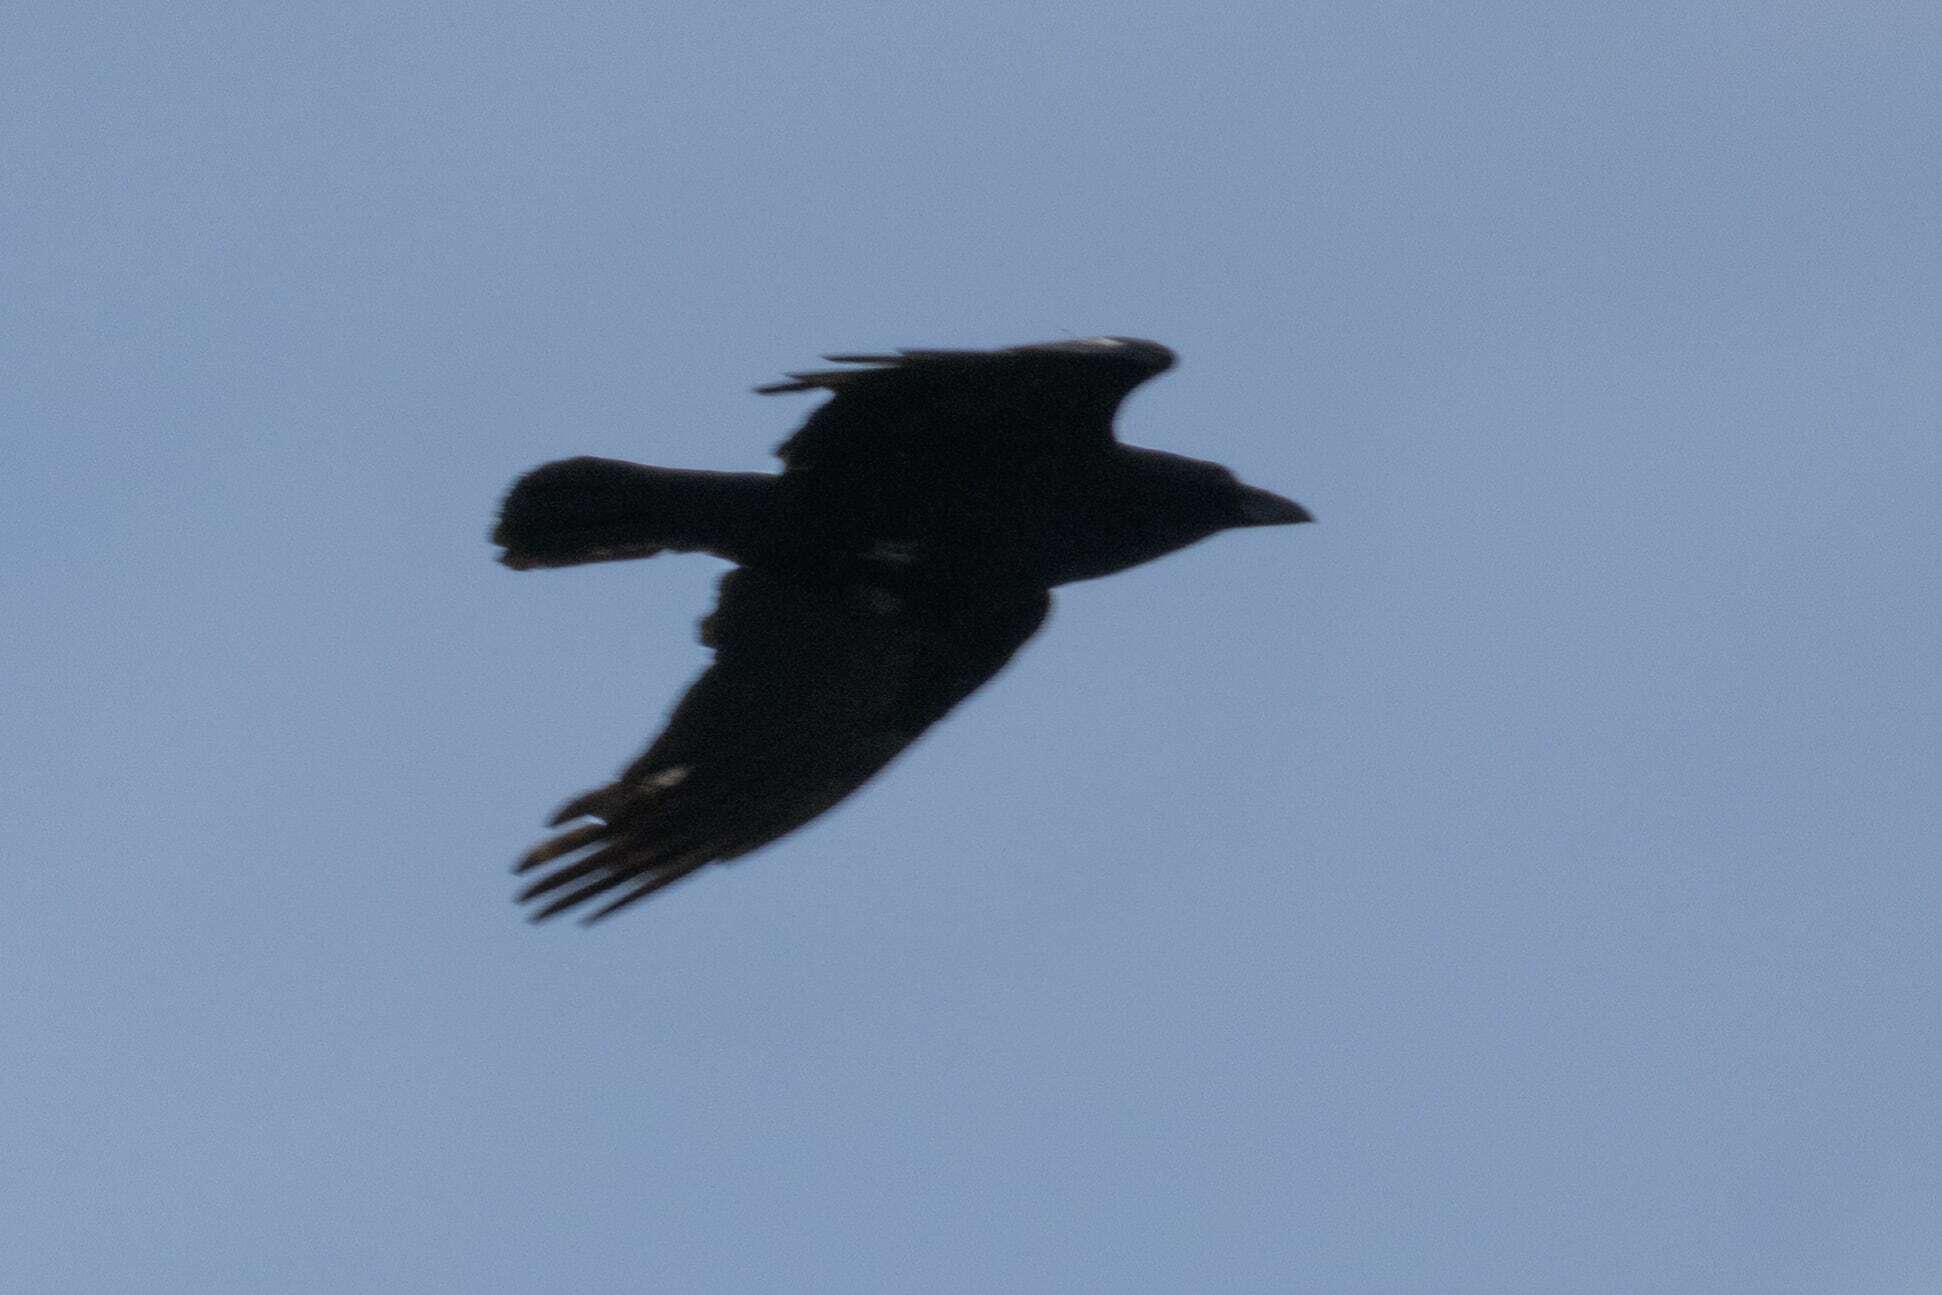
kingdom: Animalia
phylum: Chordata
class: Aves
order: Passeriformes
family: Corvidae
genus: Corvus
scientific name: Corvus corone
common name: Carrion crow
